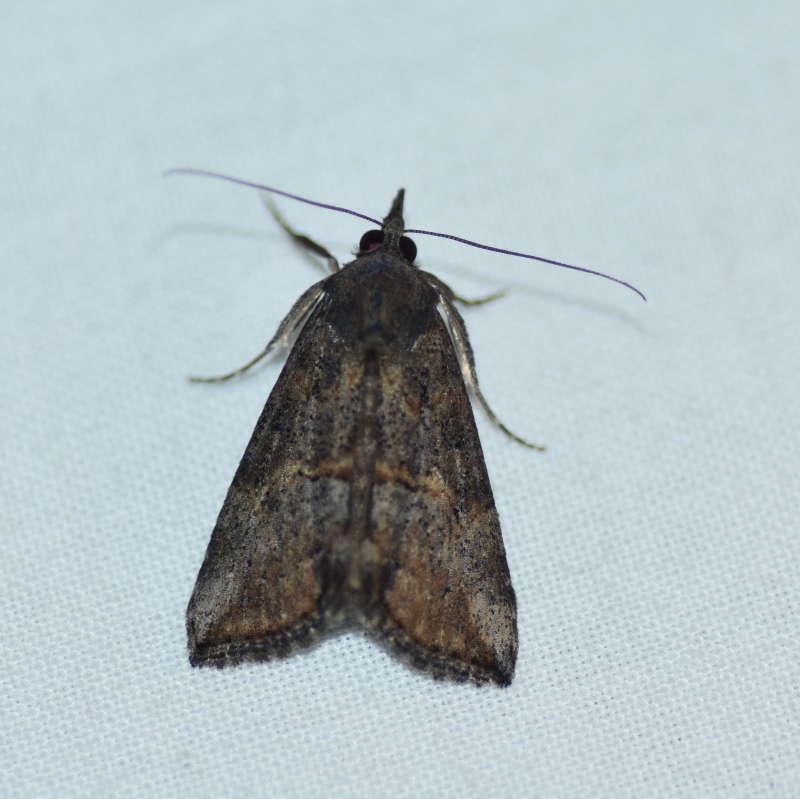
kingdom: Animalia
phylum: Arthropoda
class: Insecta
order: Lepidoptera
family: Erebidae
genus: Hypena
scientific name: Hypena scabra
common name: Green cloverworm
